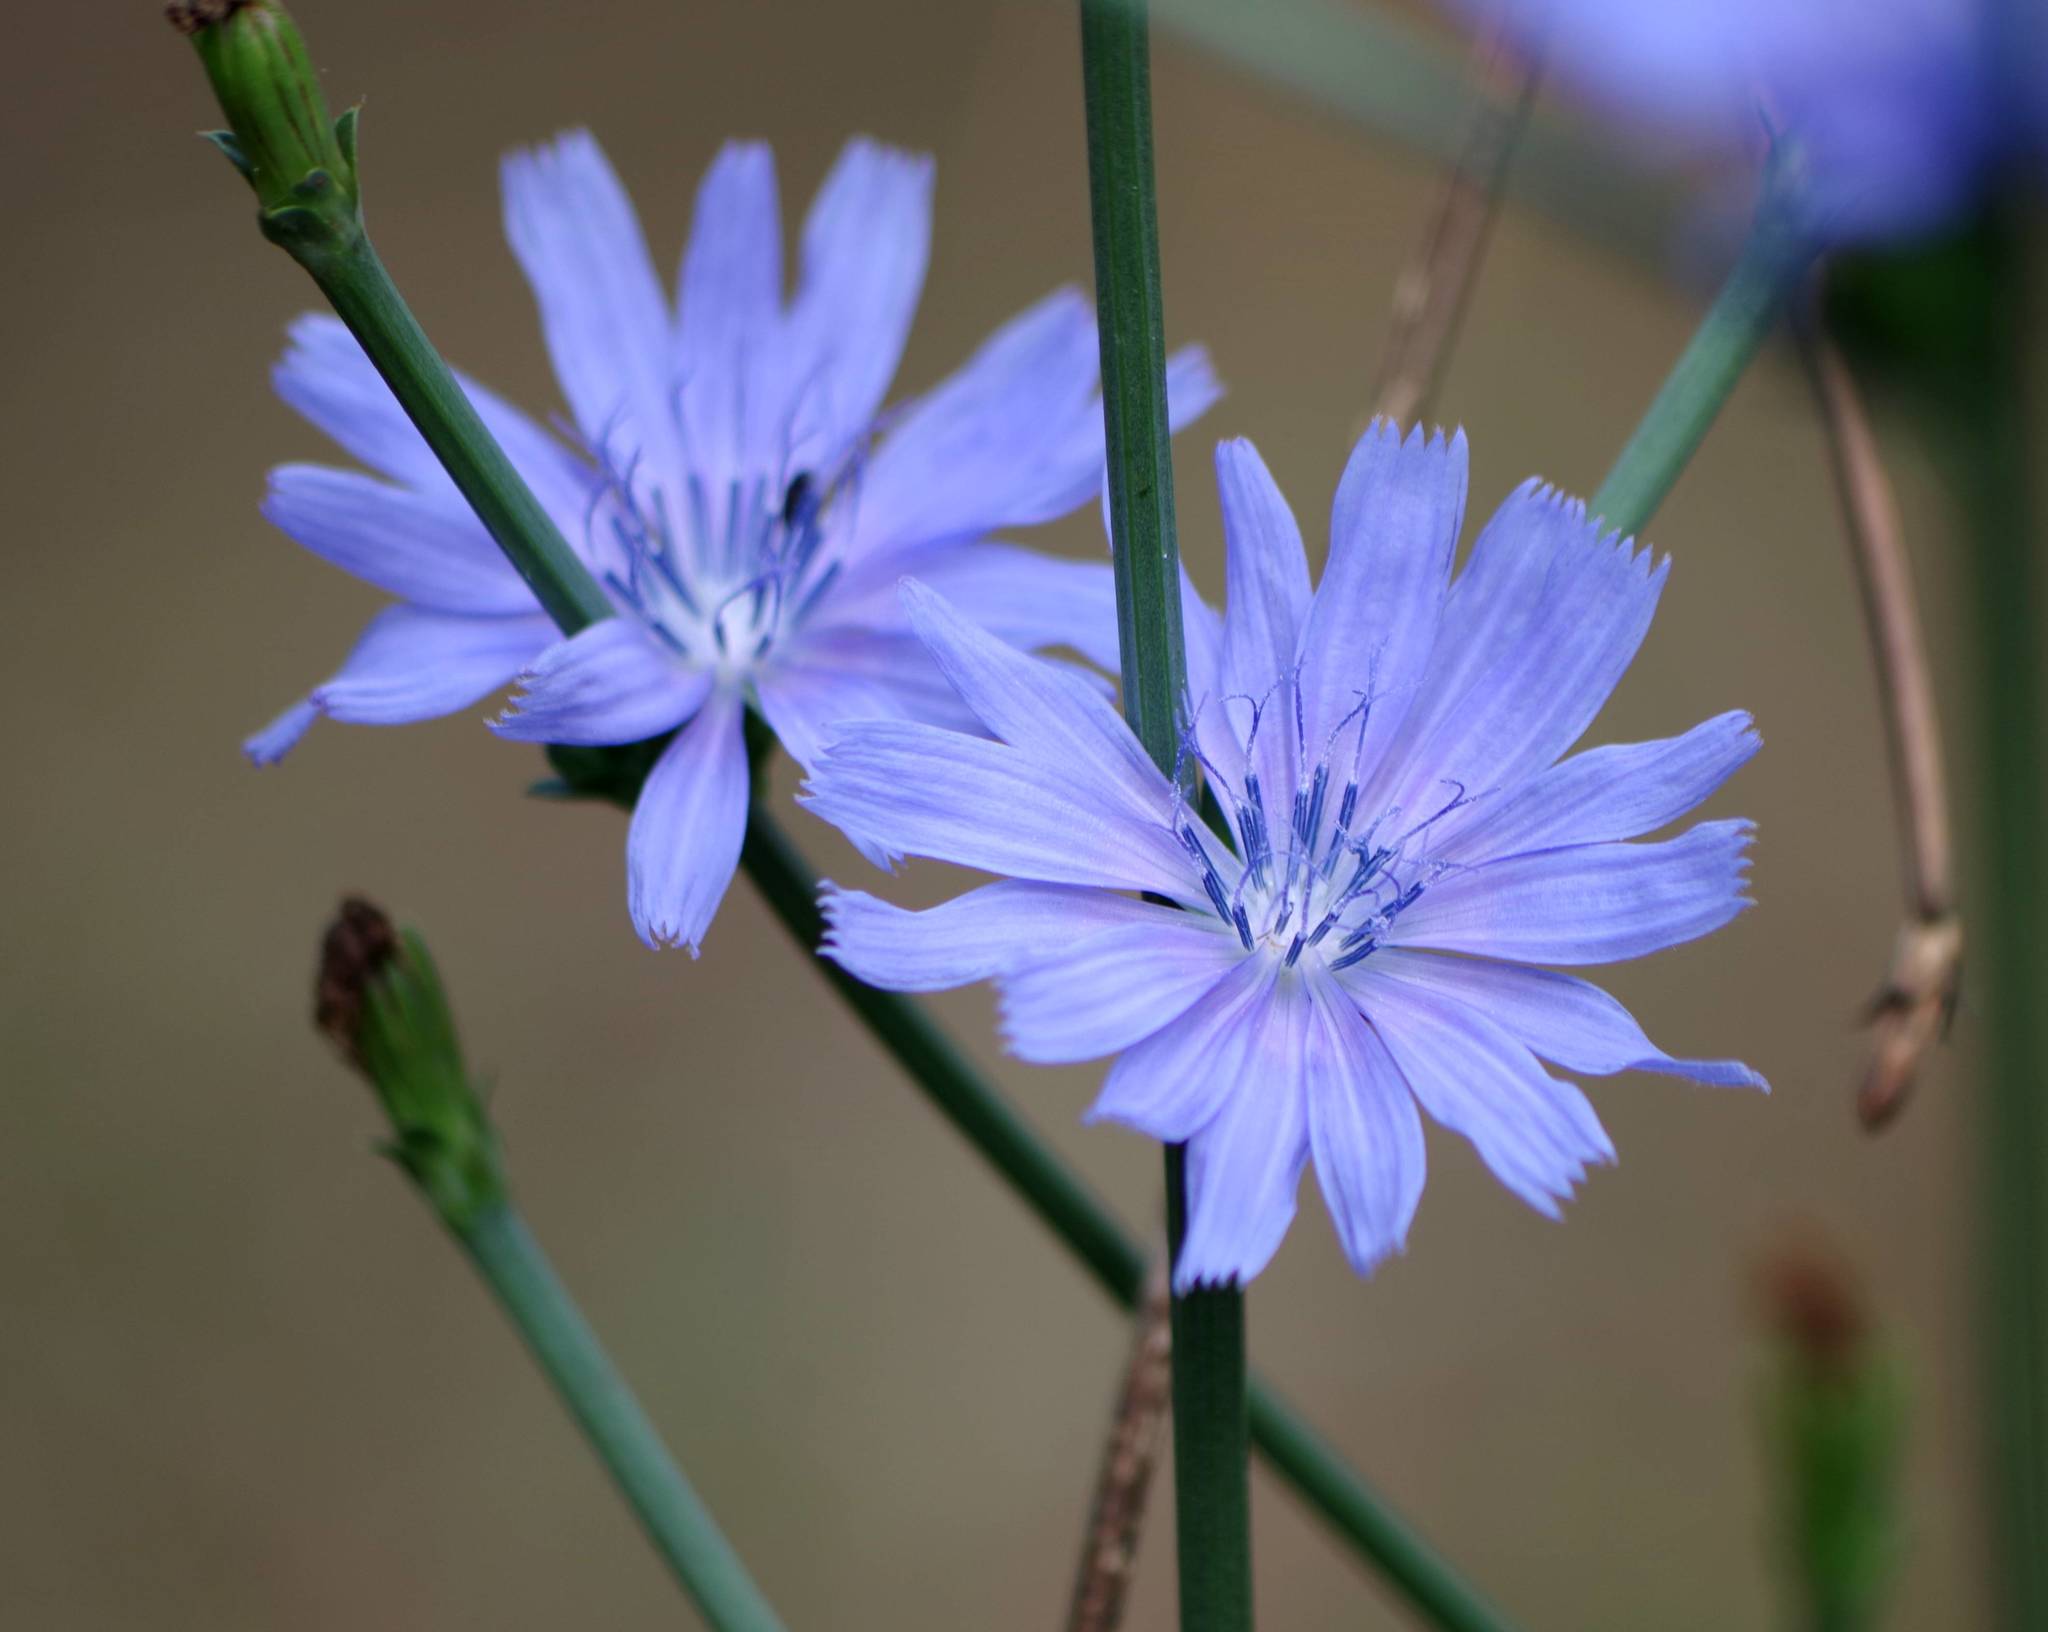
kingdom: Plantae
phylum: Tracheophyta
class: Magnoliopsida
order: Asterales
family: Asteraceae
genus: Cichorium
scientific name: Cichorium intybus
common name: Chicory
